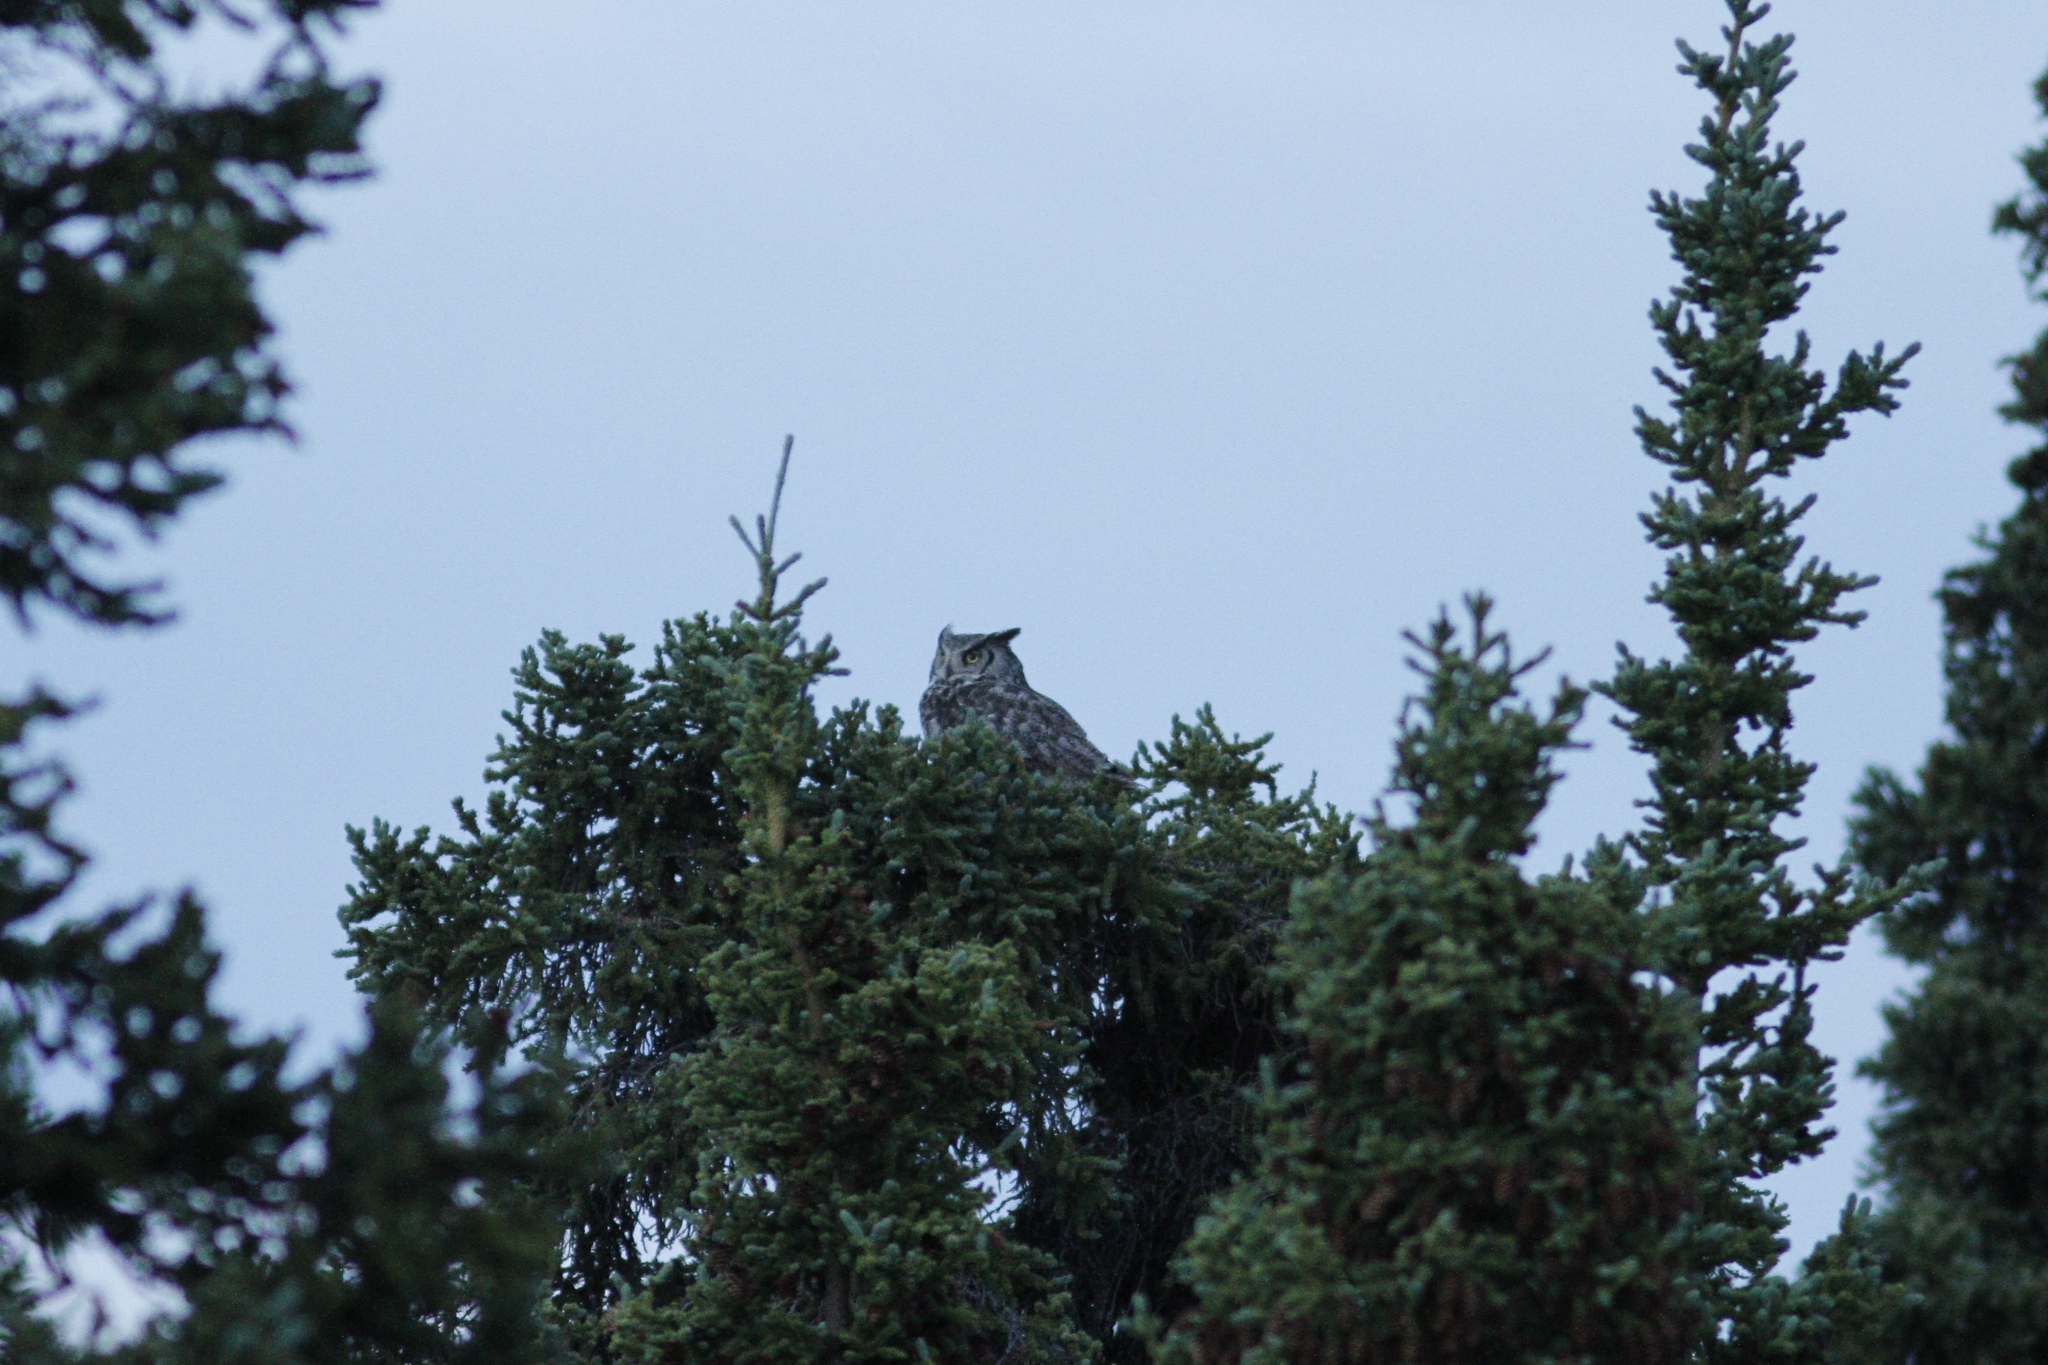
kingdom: Animalia
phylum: Chordata
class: Aves
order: Strigiformes
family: Strigidae
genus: Bubo
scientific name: Bubo virginianus
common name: Great horned owl
